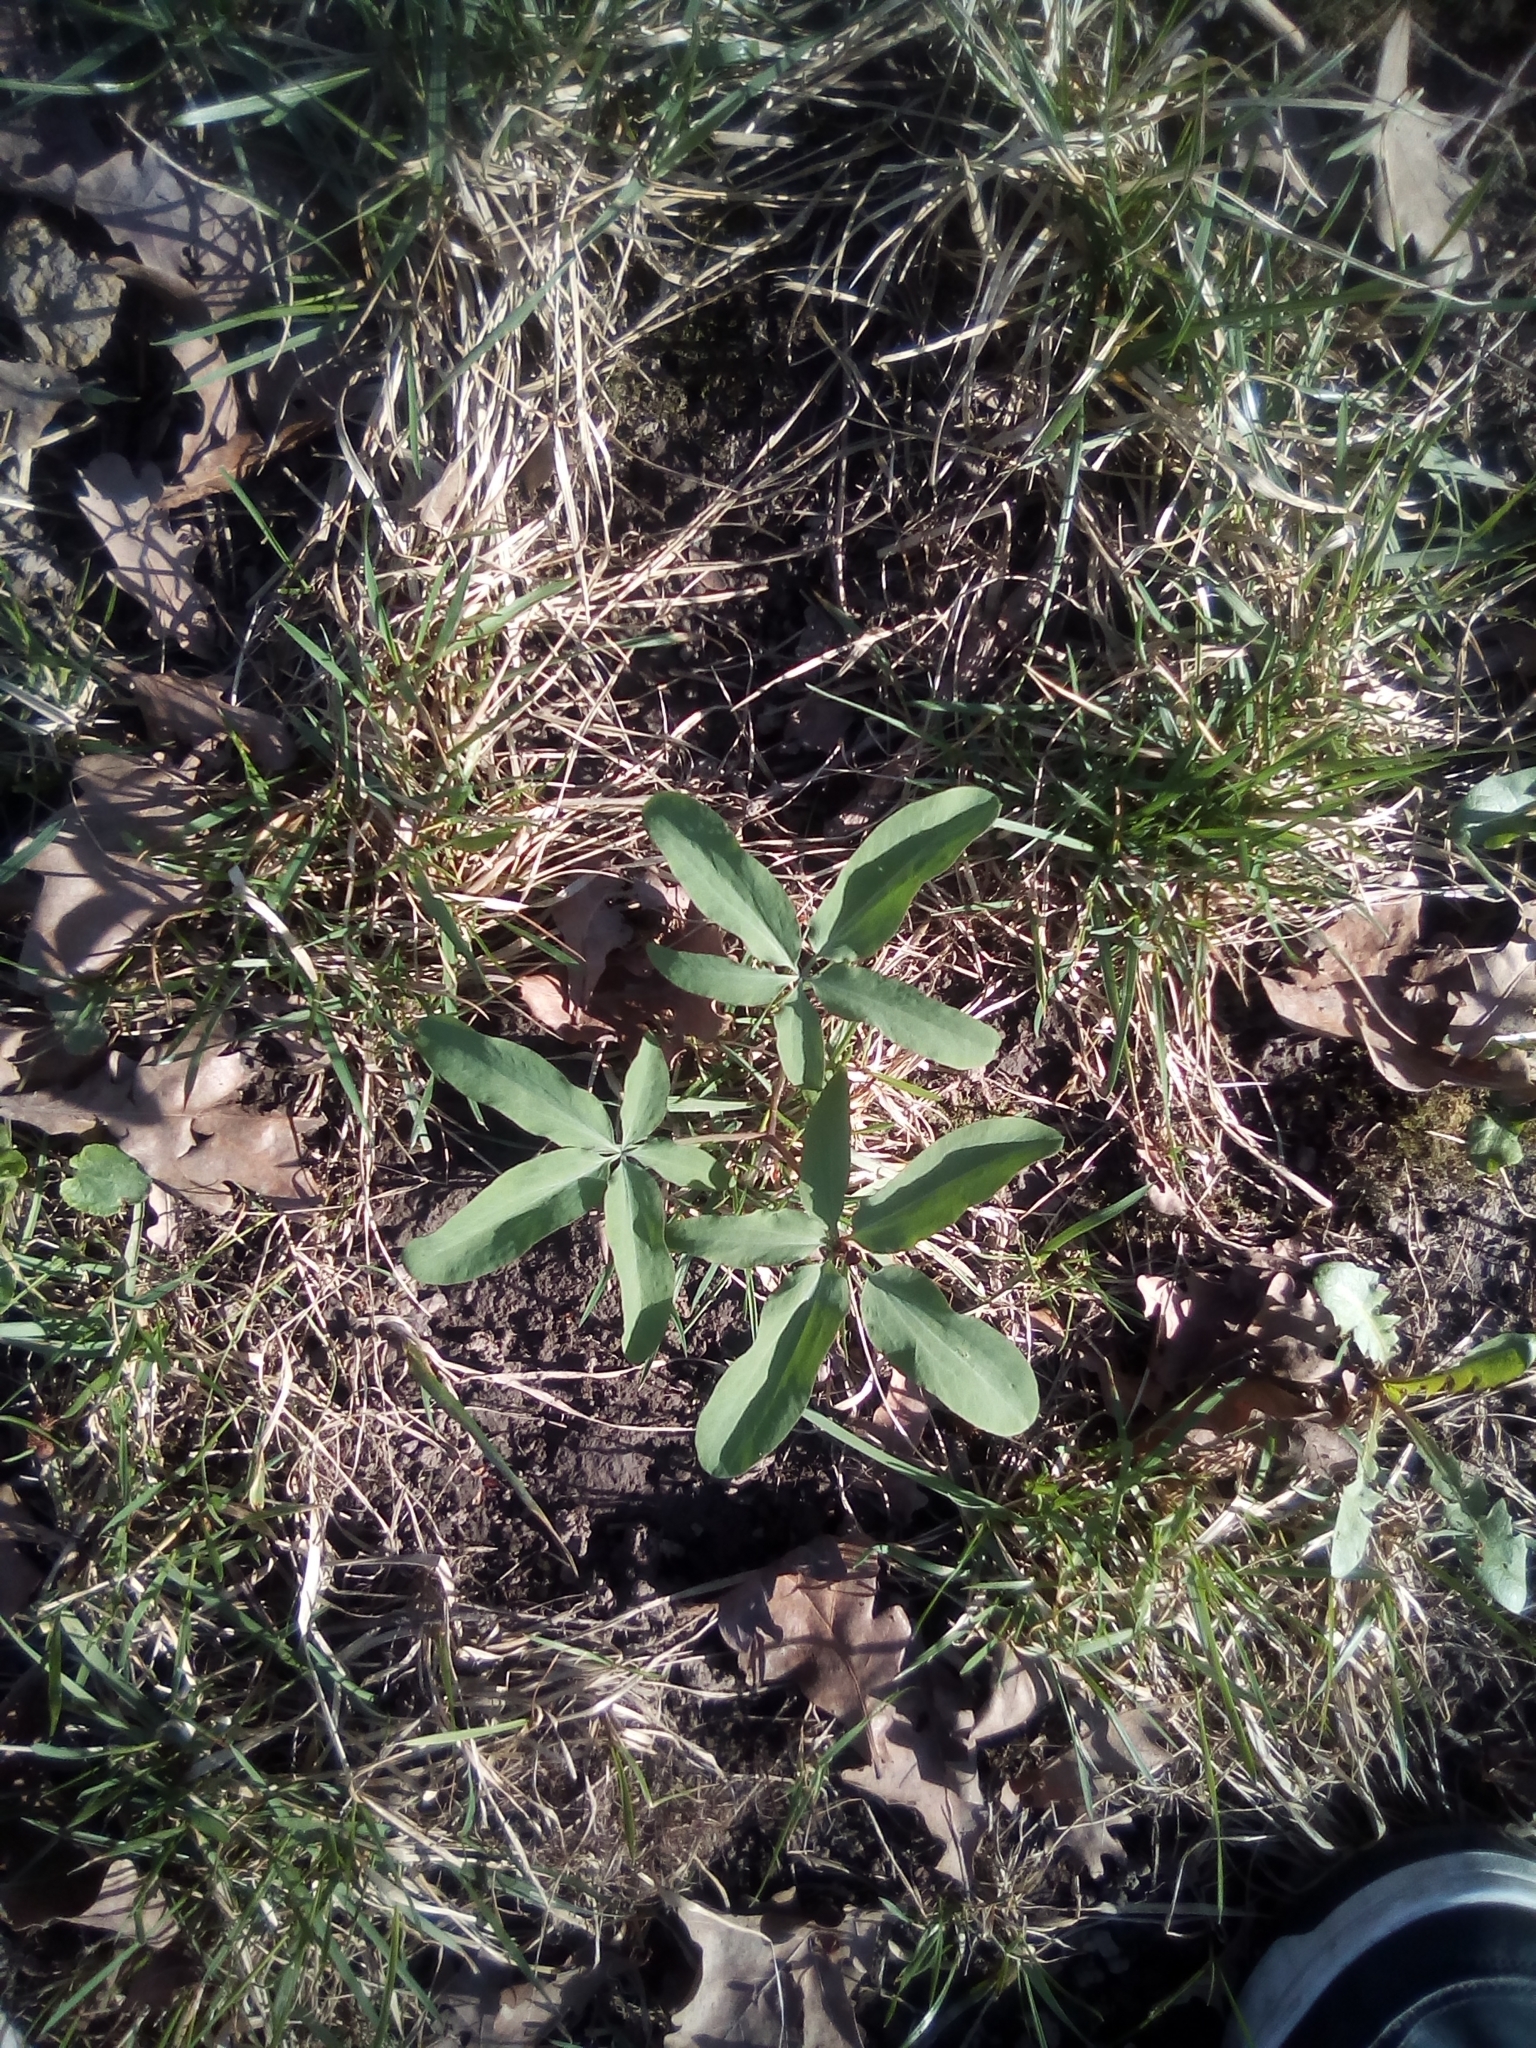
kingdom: Plantae
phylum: Tracheophyta
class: Magnoliopsida
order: Ranunculales
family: Berberidaceae
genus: Gymnospermium
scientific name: Gymnospermium altaicum
